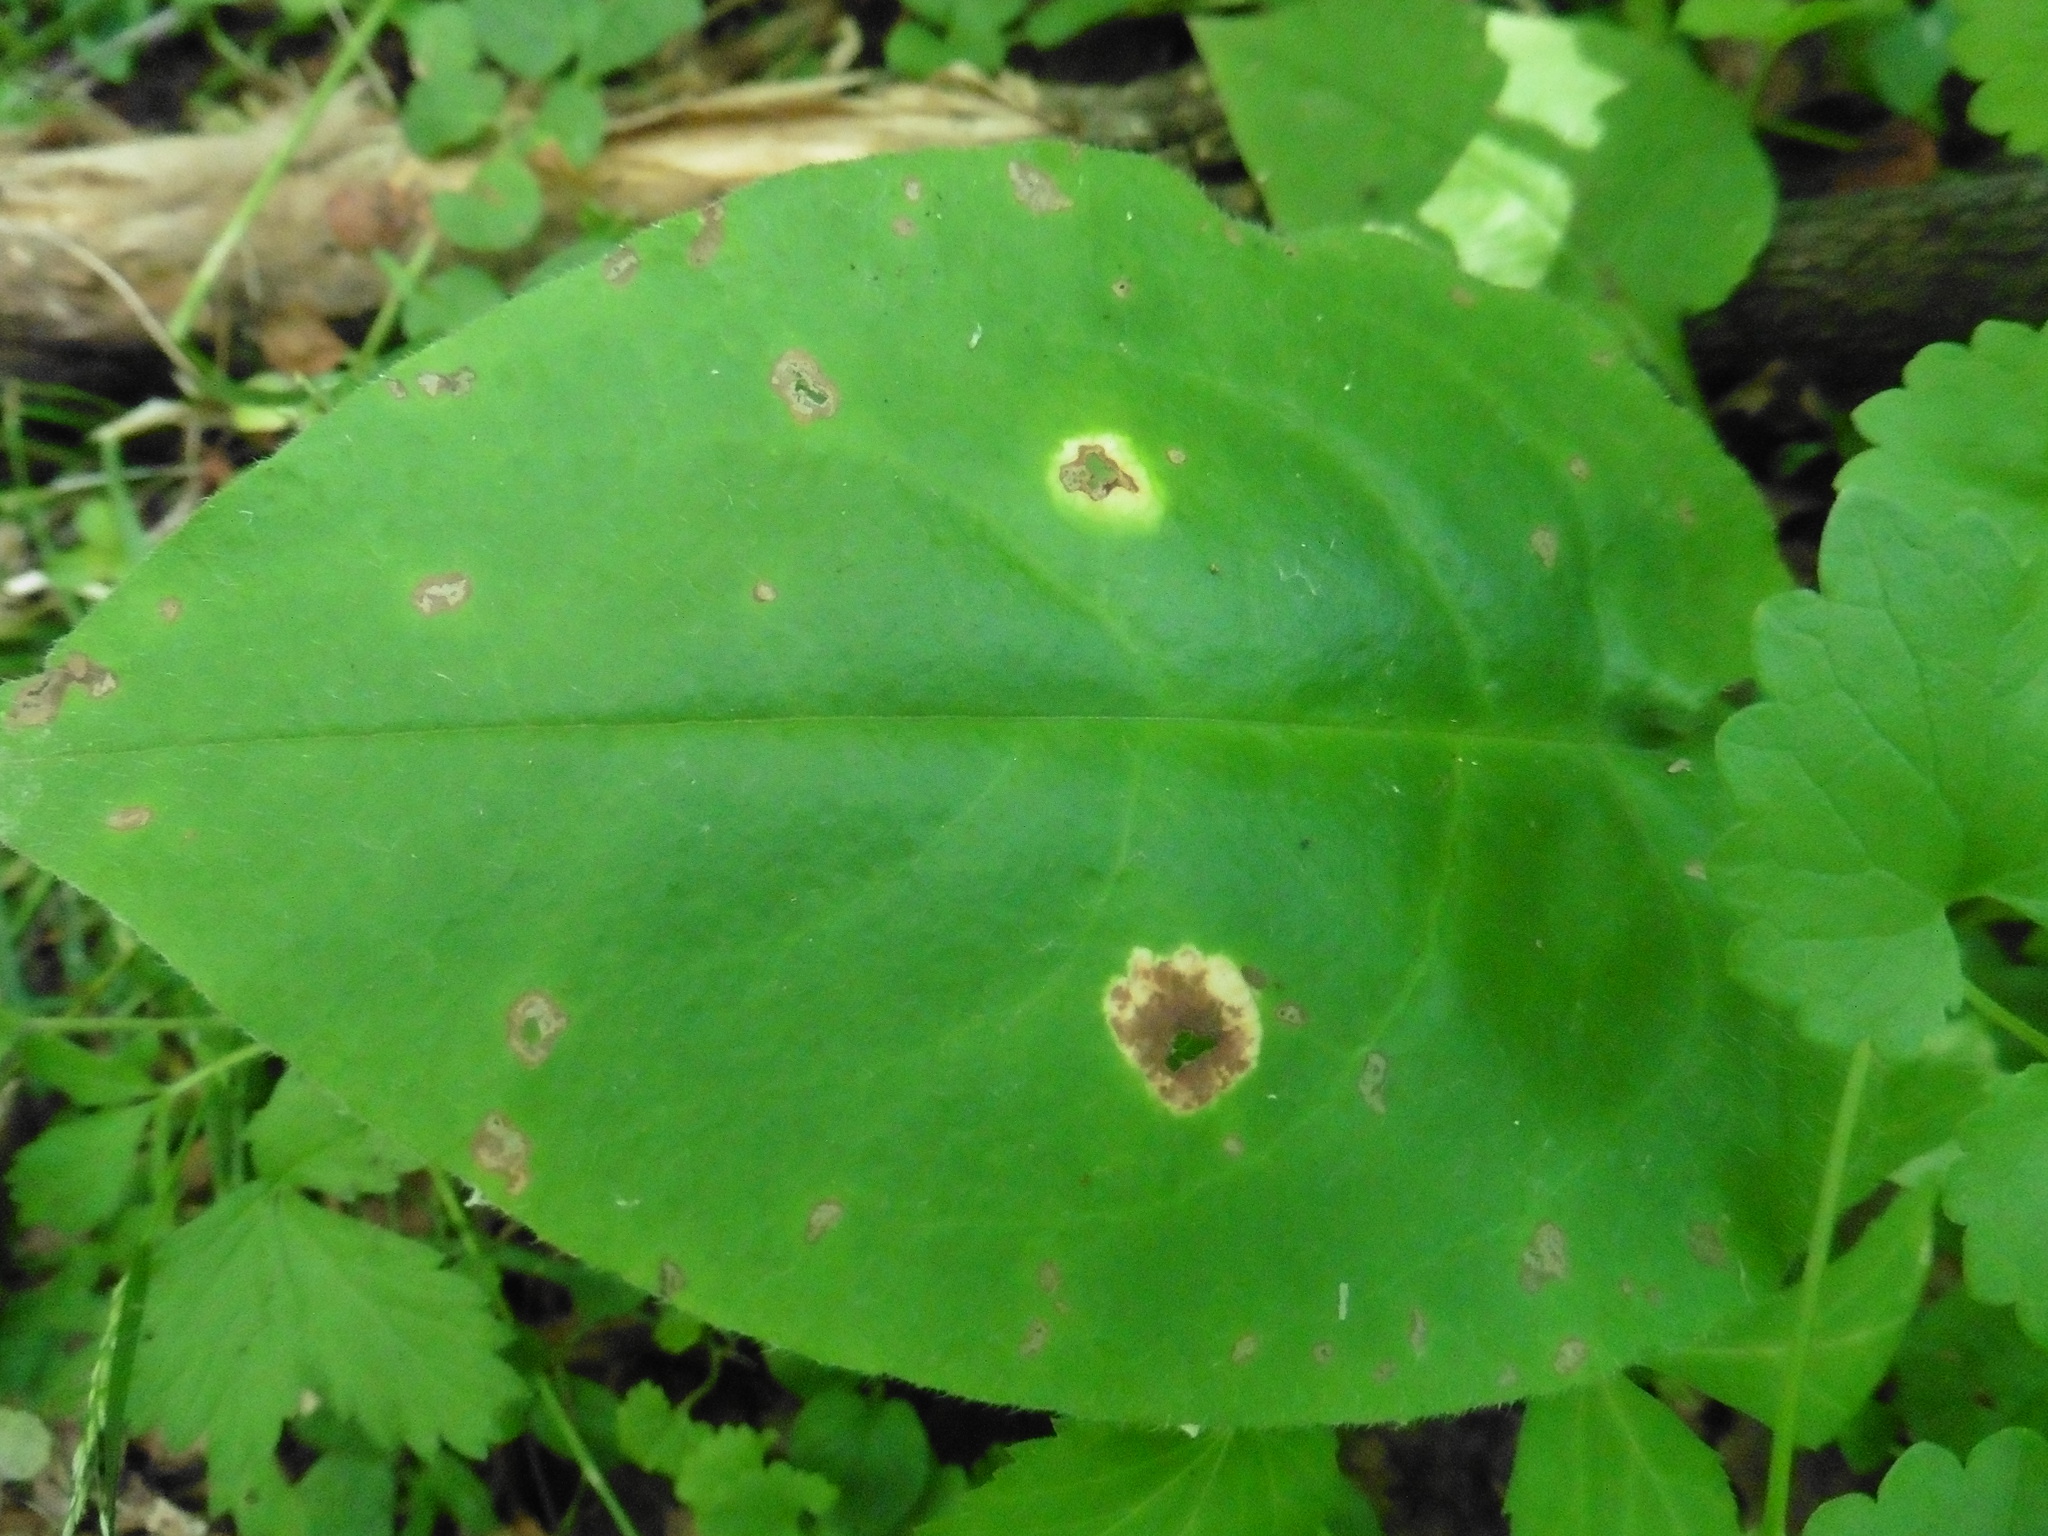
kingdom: Plantae
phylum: Tracheophyta
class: Magnoliopsida
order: Boraginales
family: Boraginaceae
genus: Pulmonaria
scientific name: Pulmonaria obscura
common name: Suffolk lungwort
